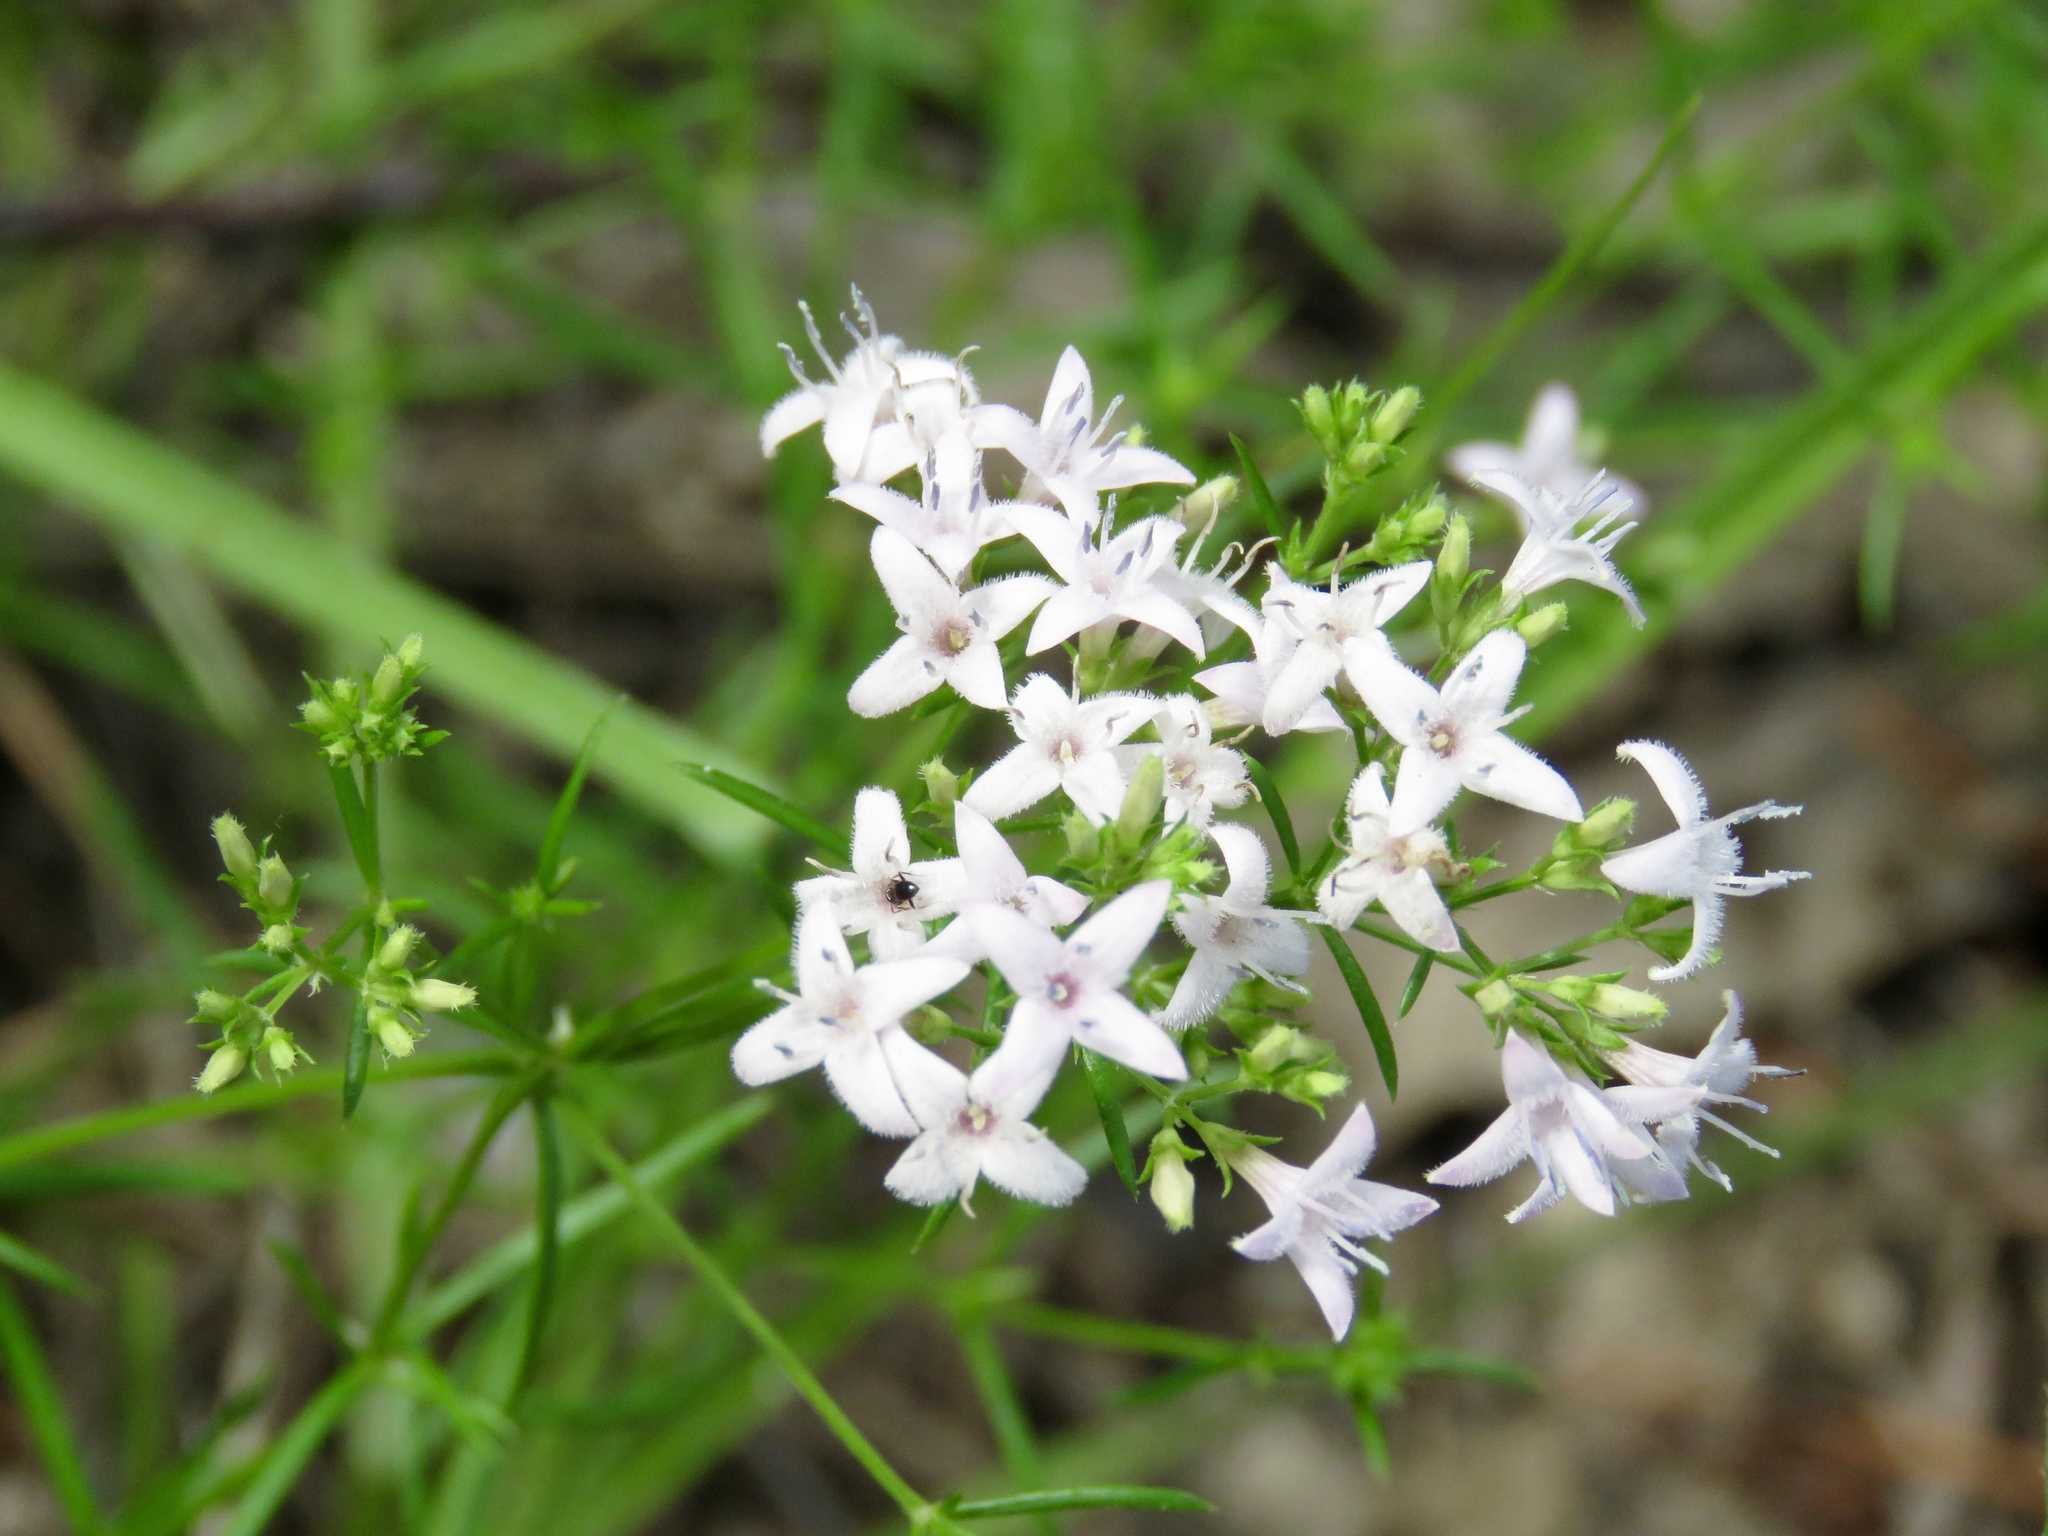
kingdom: Plantae
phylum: Tracheophyta
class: Magnoliopsida
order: Gentianales
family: Rubiaceae
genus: Stenaria
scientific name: Stenaria nigricans
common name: Diamondflowers
